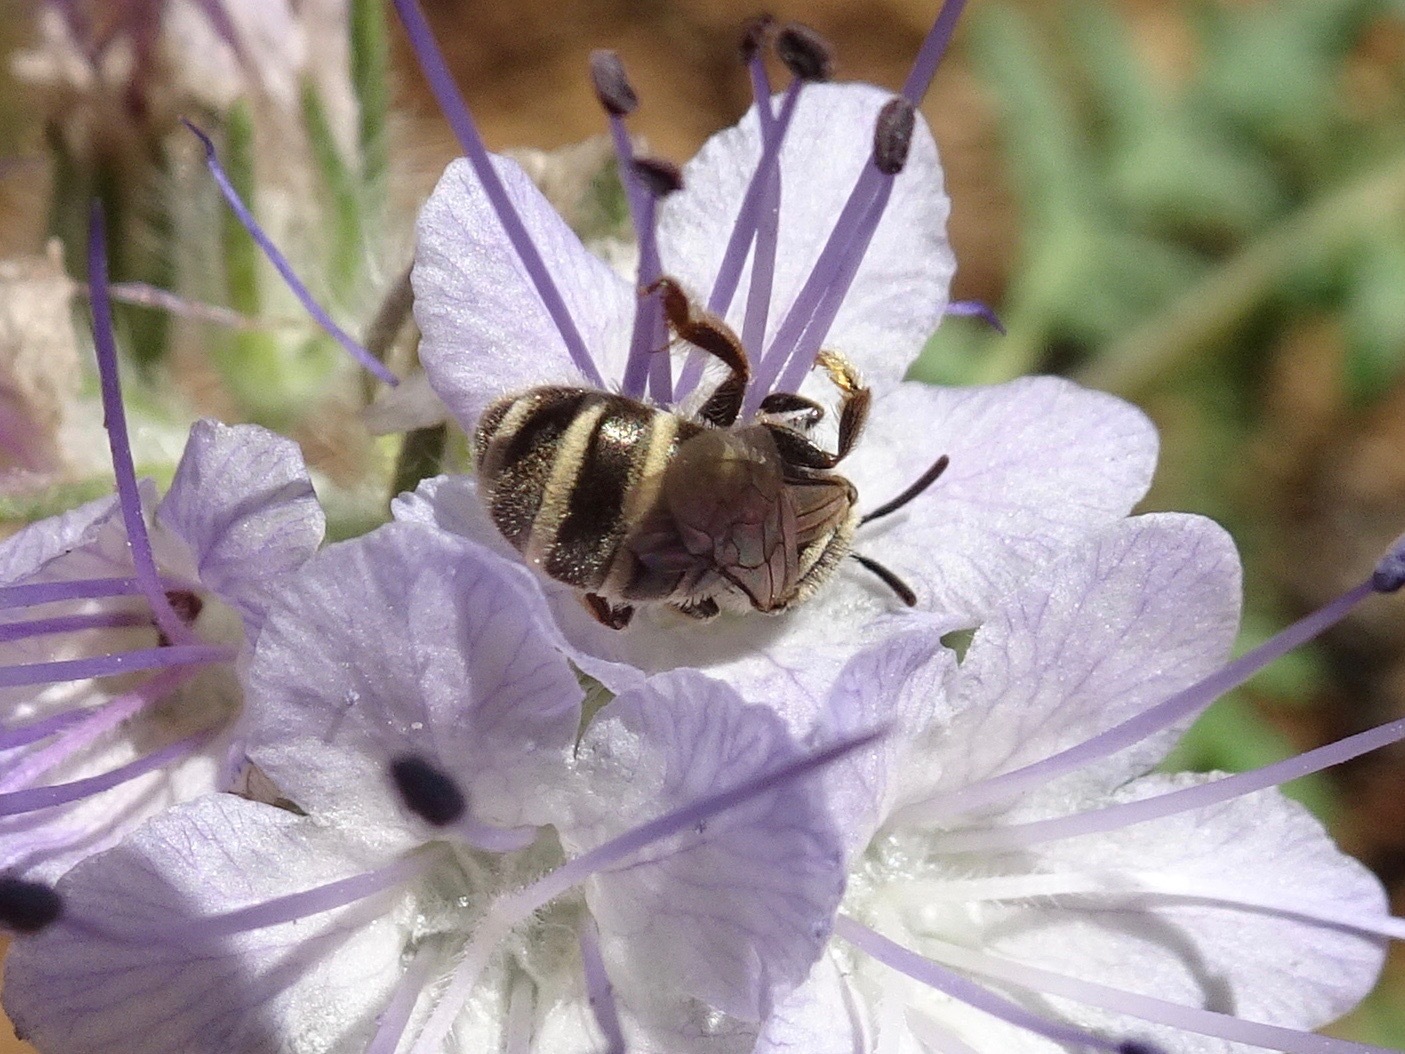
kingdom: Animalia
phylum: Arthropoda
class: Insecta
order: Hymenoptera
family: Halictidae
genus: Halictus
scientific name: Halictus tripartitus
